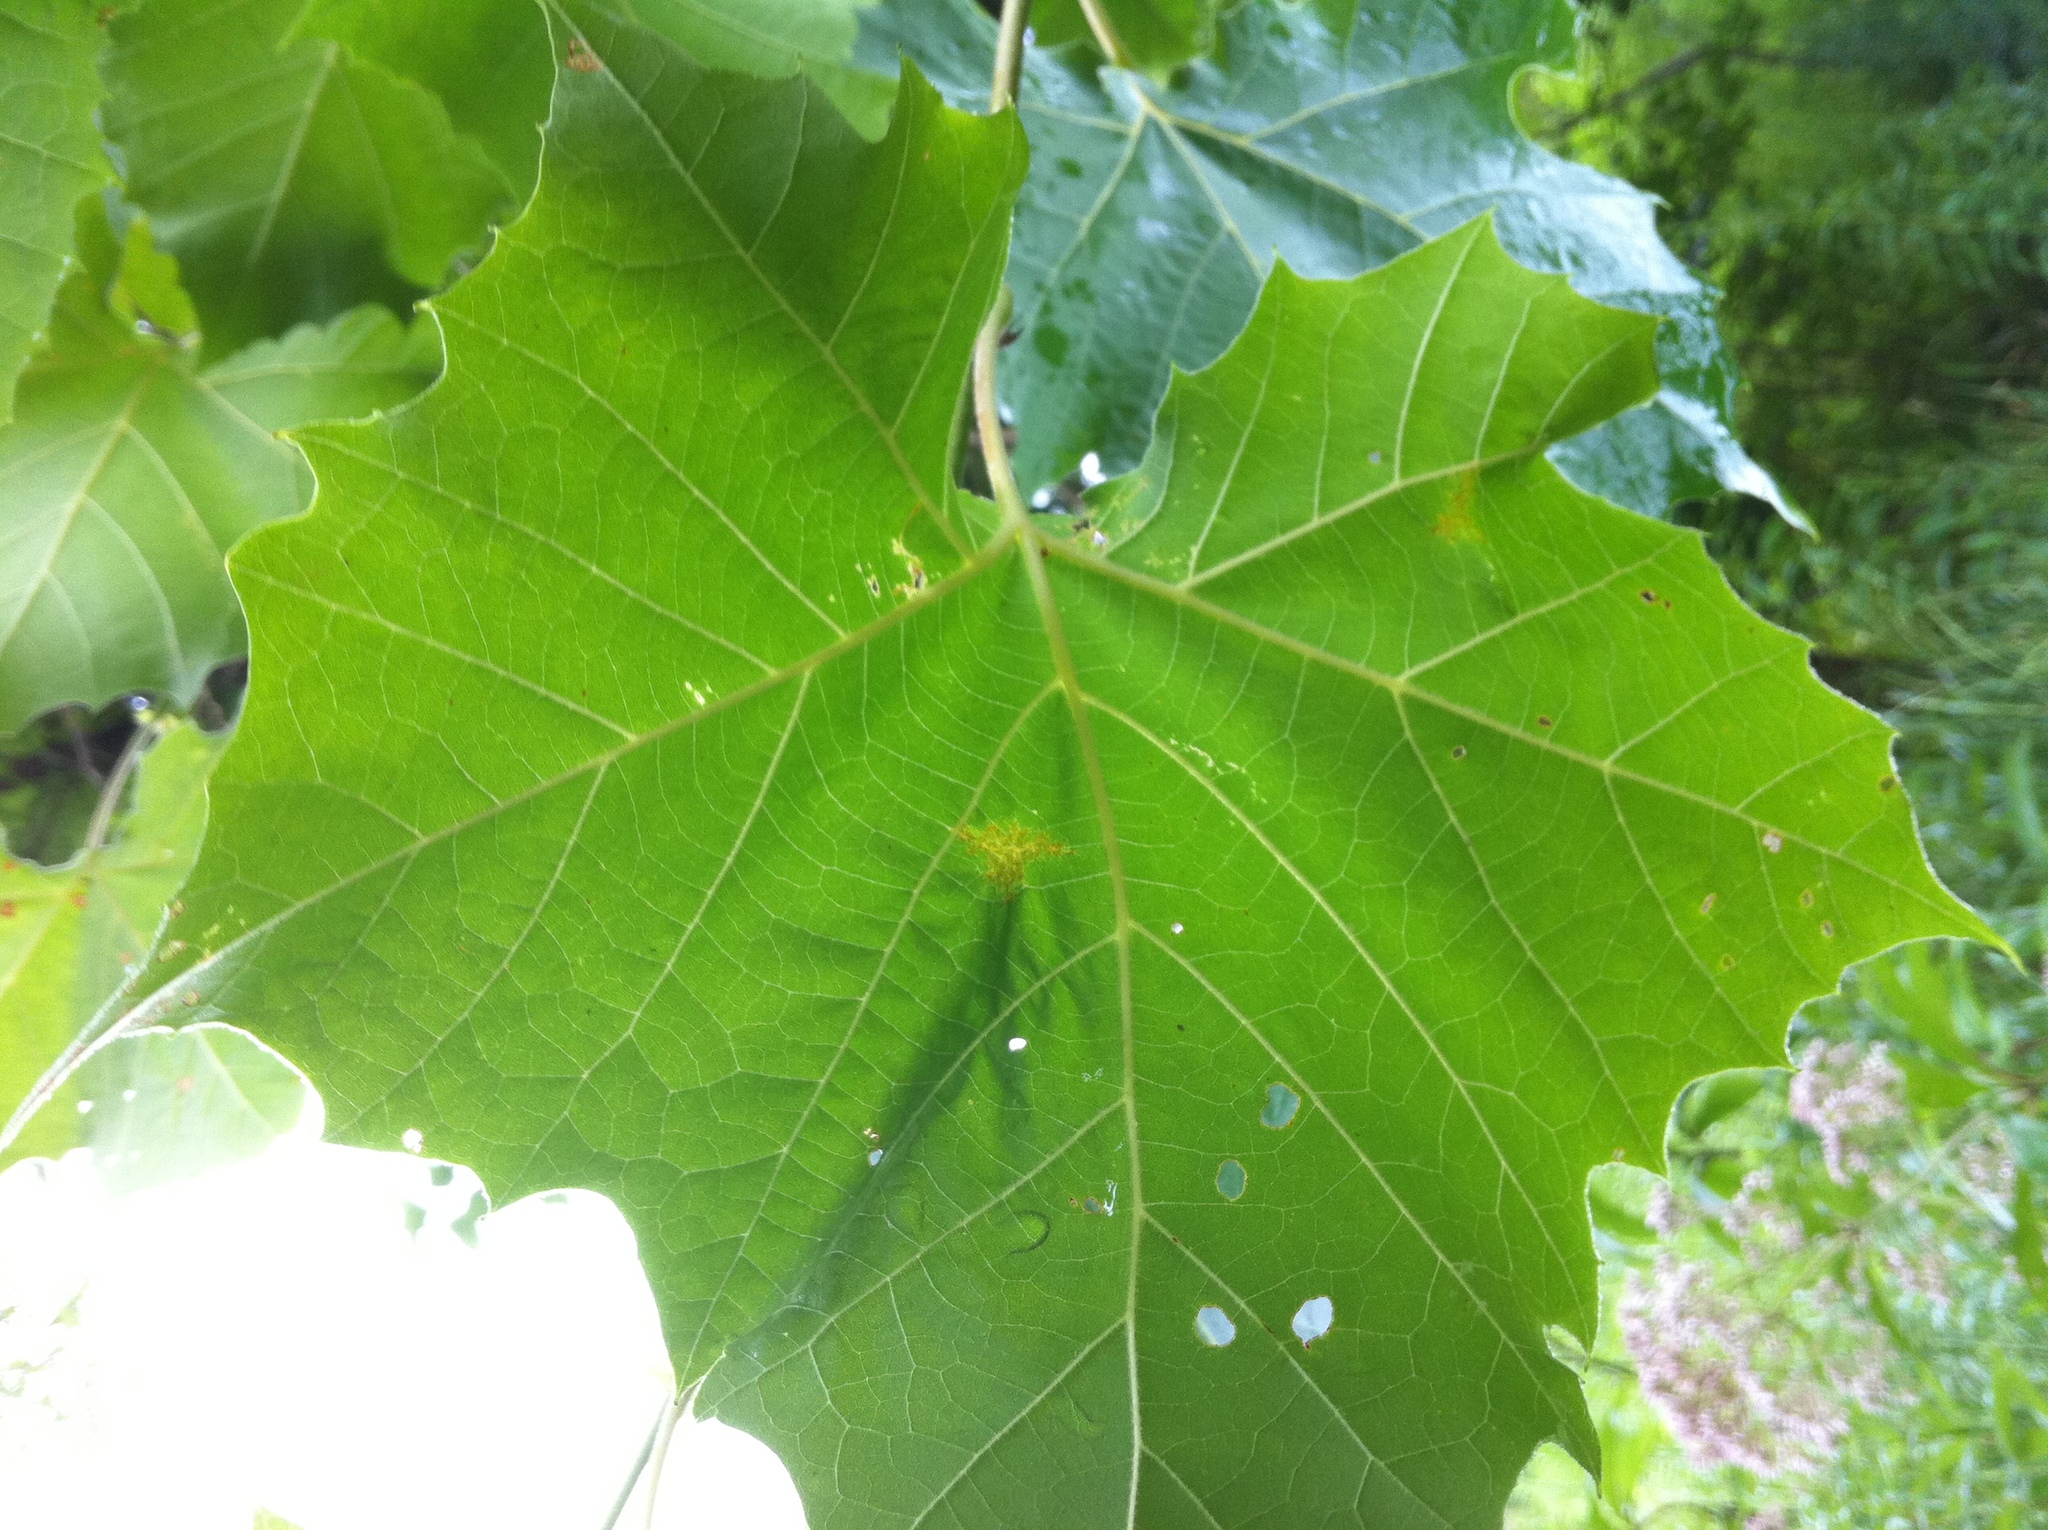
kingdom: Plantae
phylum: Tracheophyta
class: Magnoliopsida
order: Proteales
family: Platanaceae
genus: Platanus
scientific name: Platanus occidentalis
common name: American sycamore
